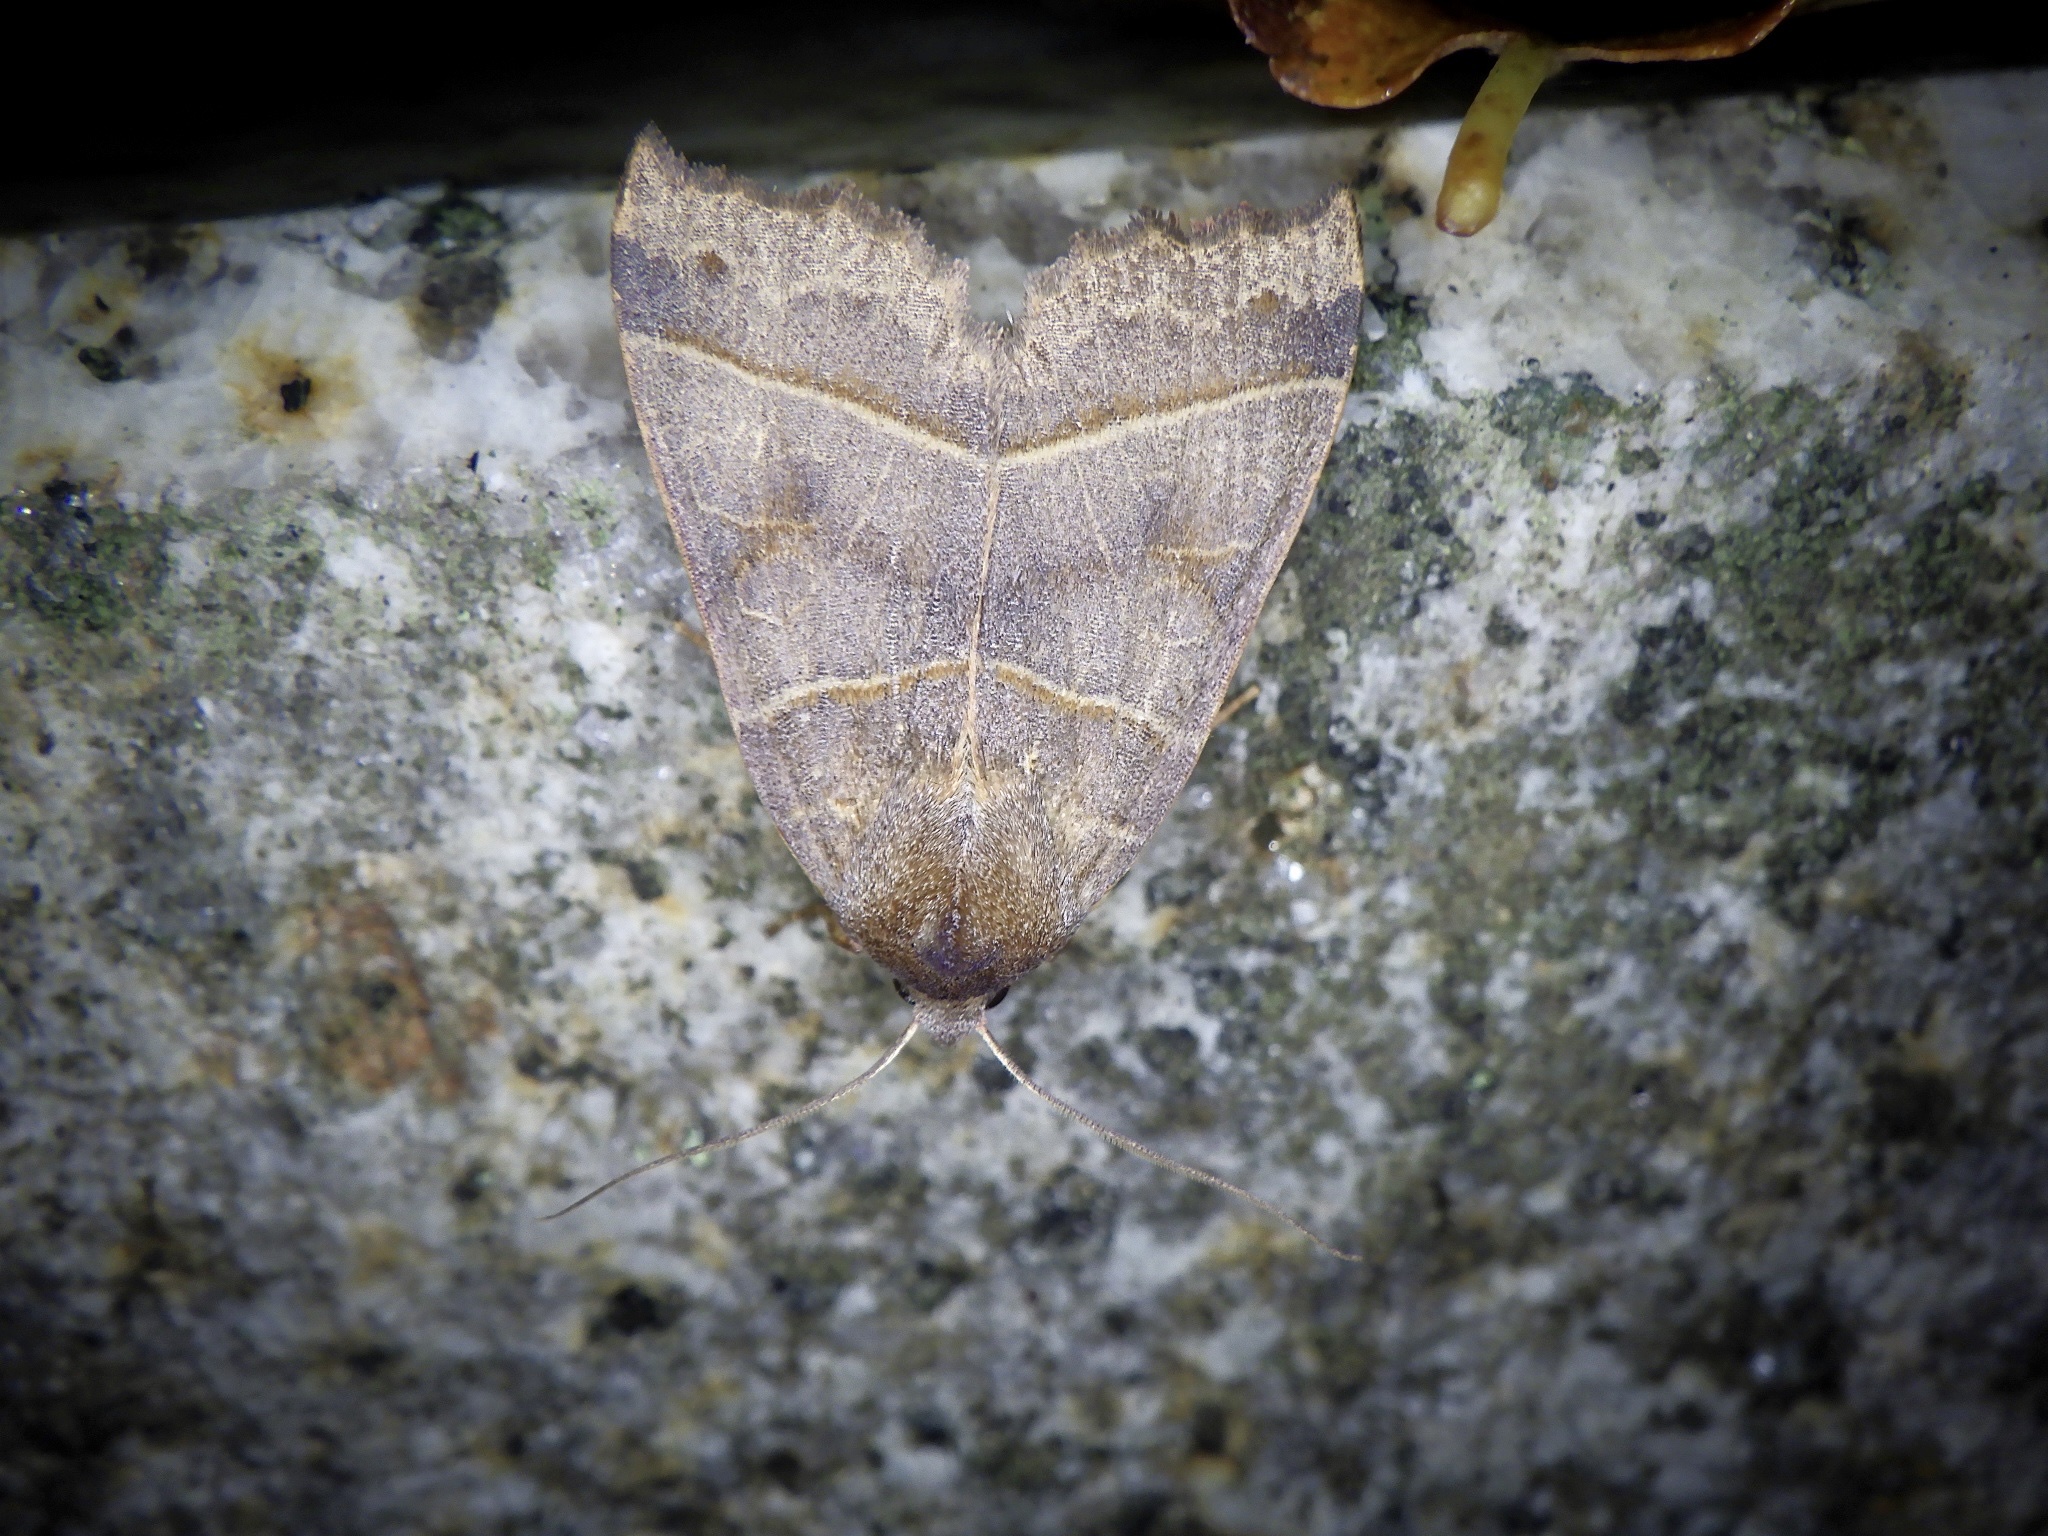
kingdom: Animalia
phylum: Arthropoda
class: Insecta
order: Lepidoptera
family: Noctuidae
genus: Telorta
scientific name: Telorta acuminata
